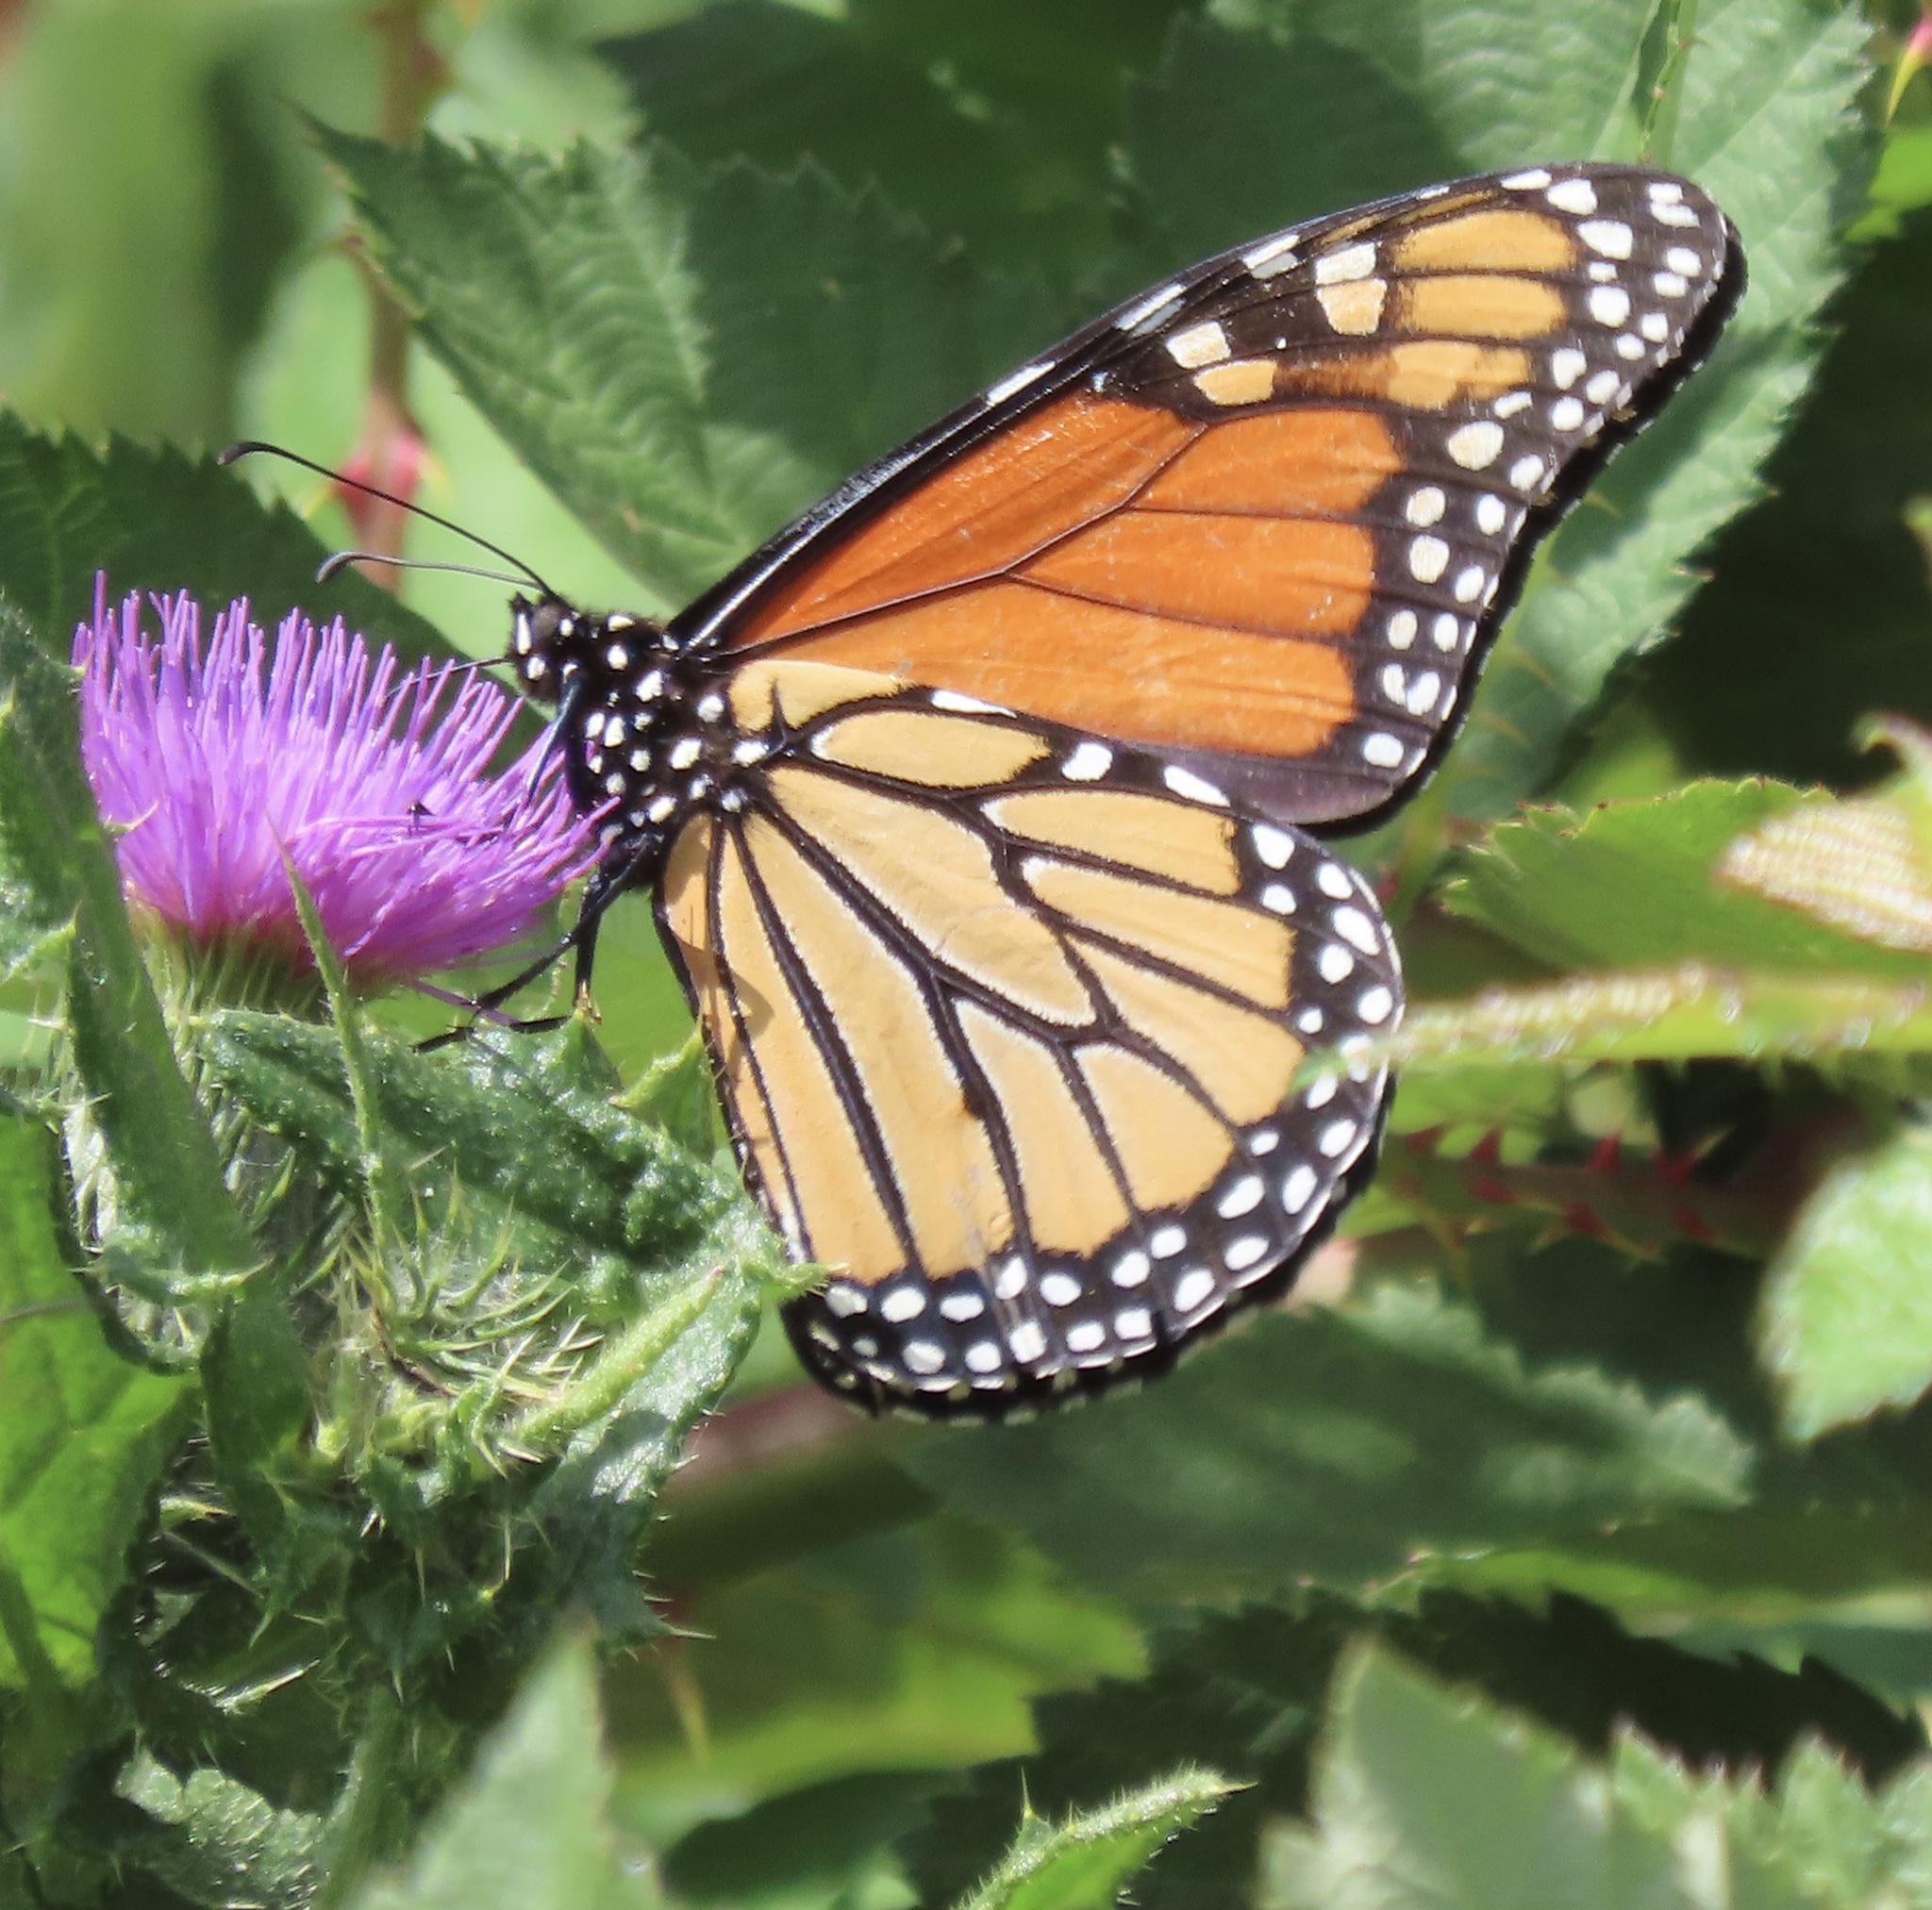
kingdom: Animalia
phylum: Arthropoda
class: Insecta
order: Lepidoptera
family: Nymphalidae
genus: Danaus
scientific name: Danaus plexippus
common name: Monarch
